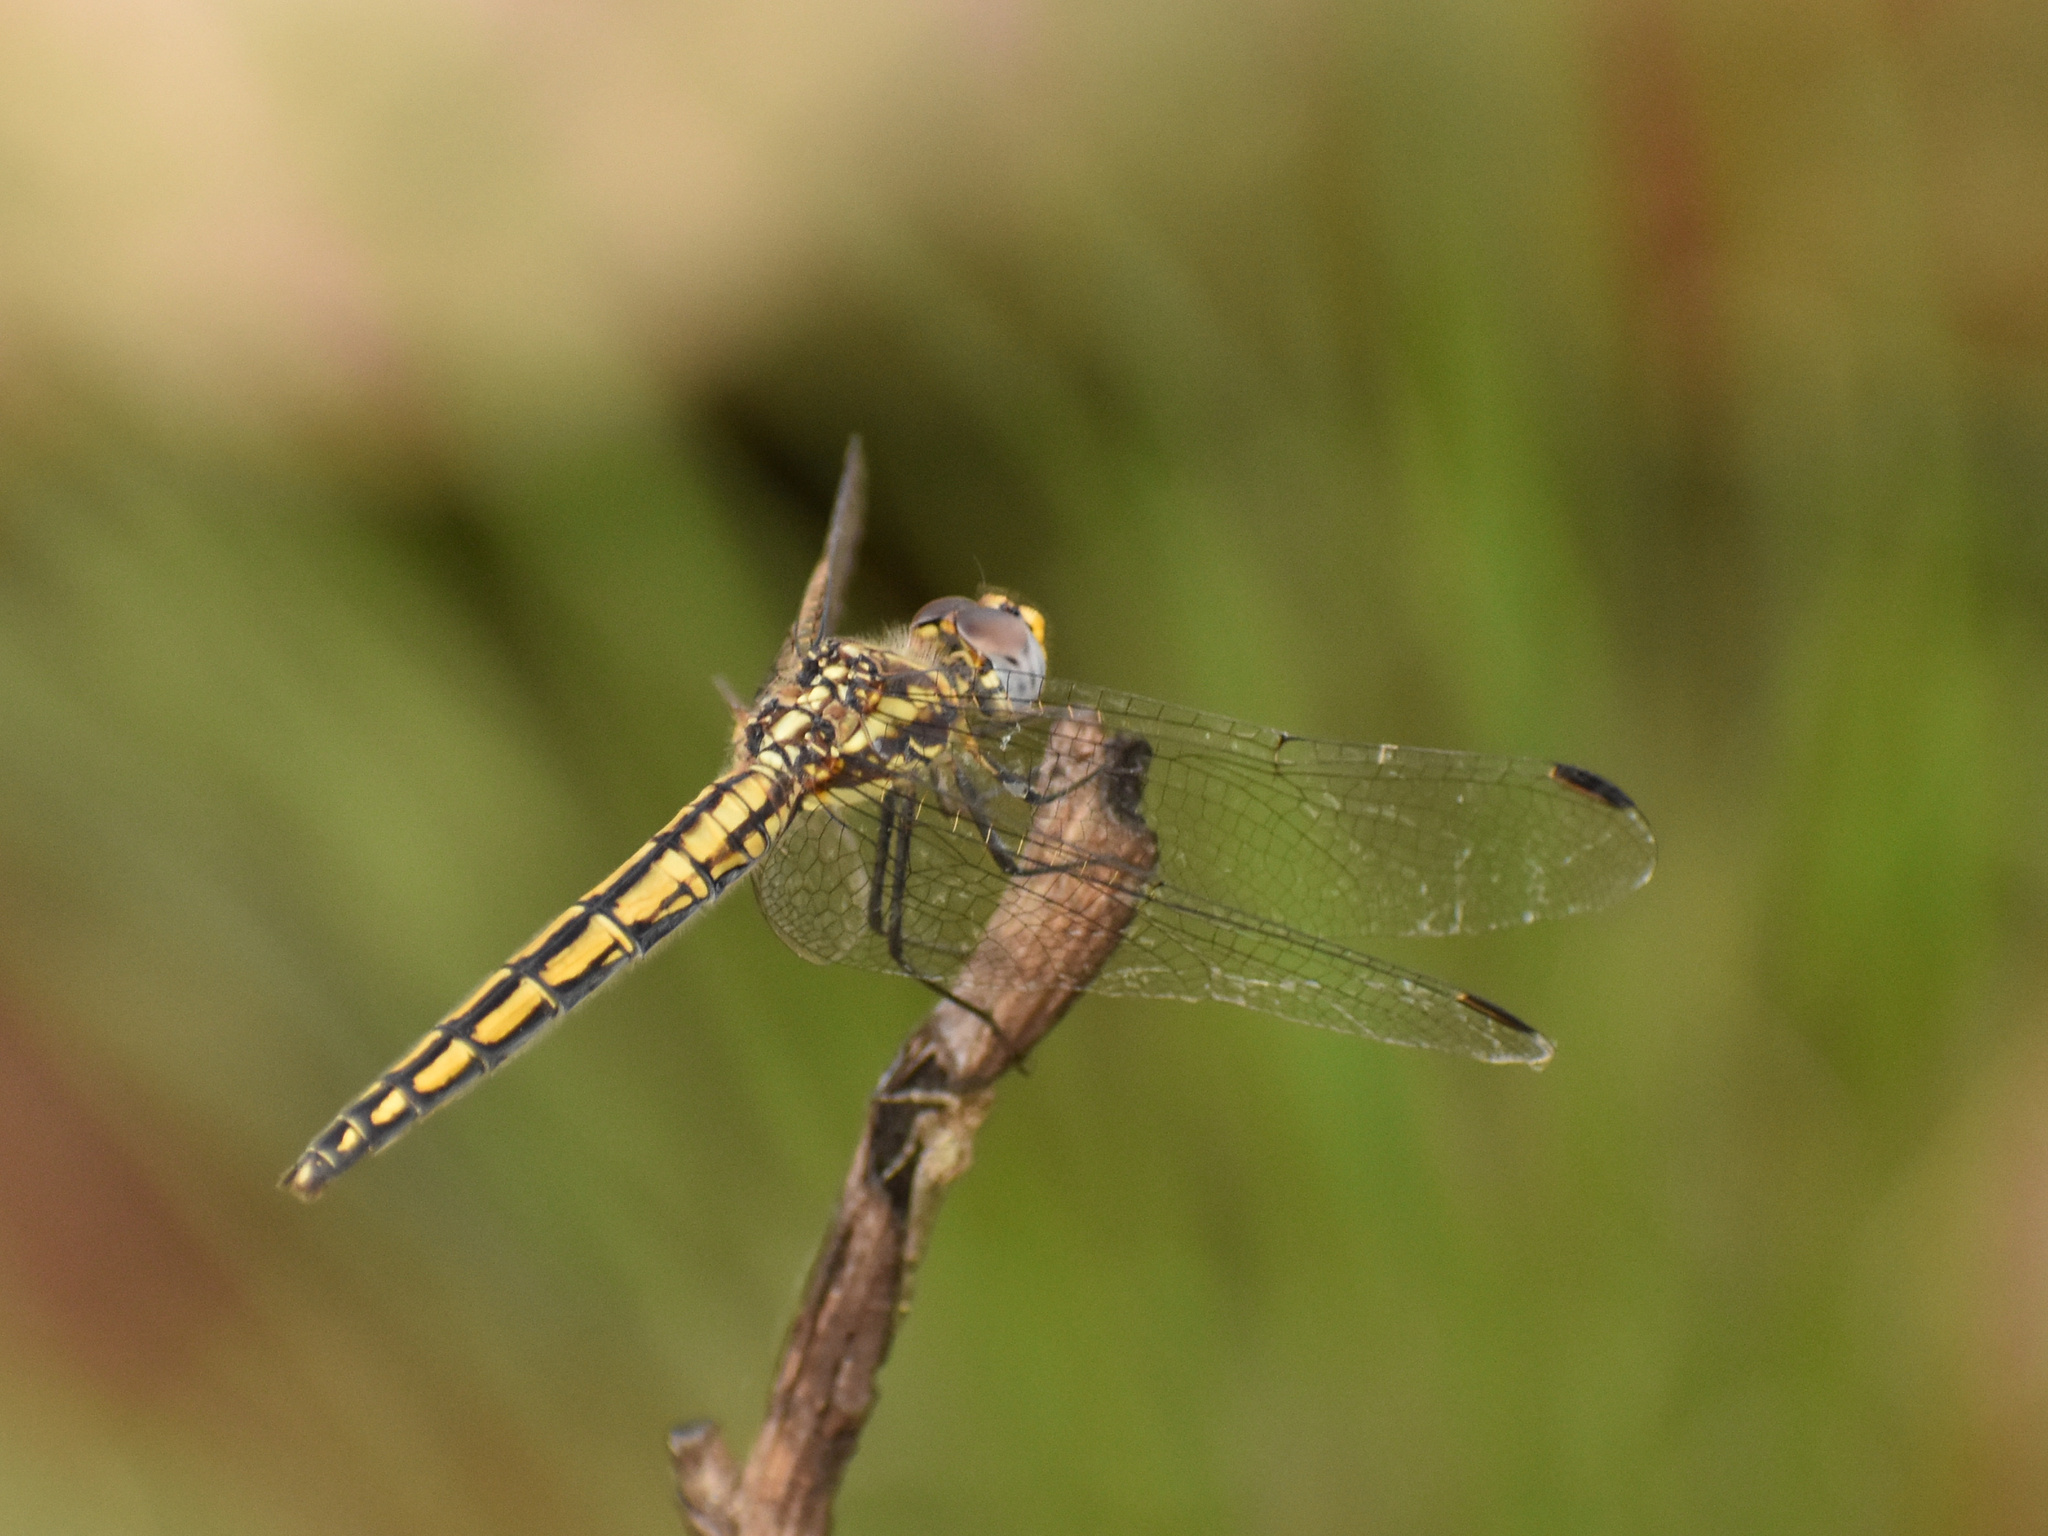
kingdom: Animalia
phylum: Arthropoda
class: Insecta
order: Odonata
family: Libellulidae
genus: Trithemis
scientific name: Trithemis furva
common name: Dark dropwing
